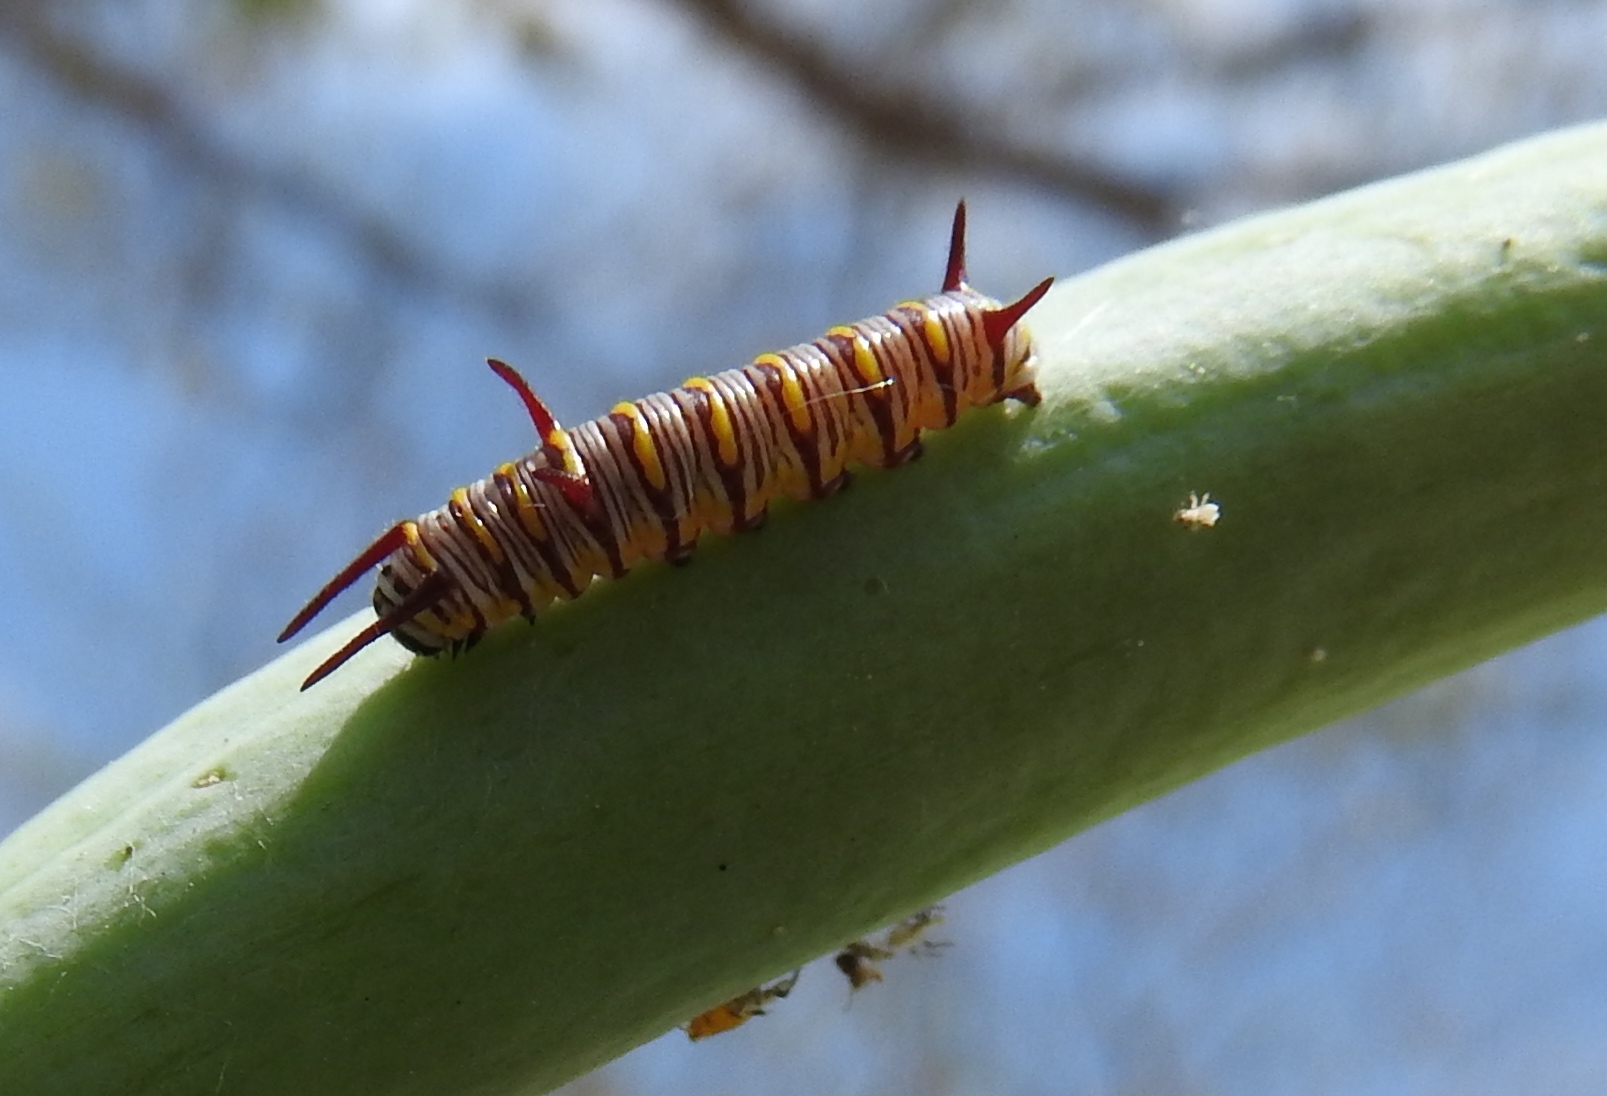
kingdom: Animalia
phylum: Arthropoda
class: Insecta
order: Lepidoptera
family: Nymphalidae
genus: Danaus
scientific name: Danaus gilippus
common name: Queen
